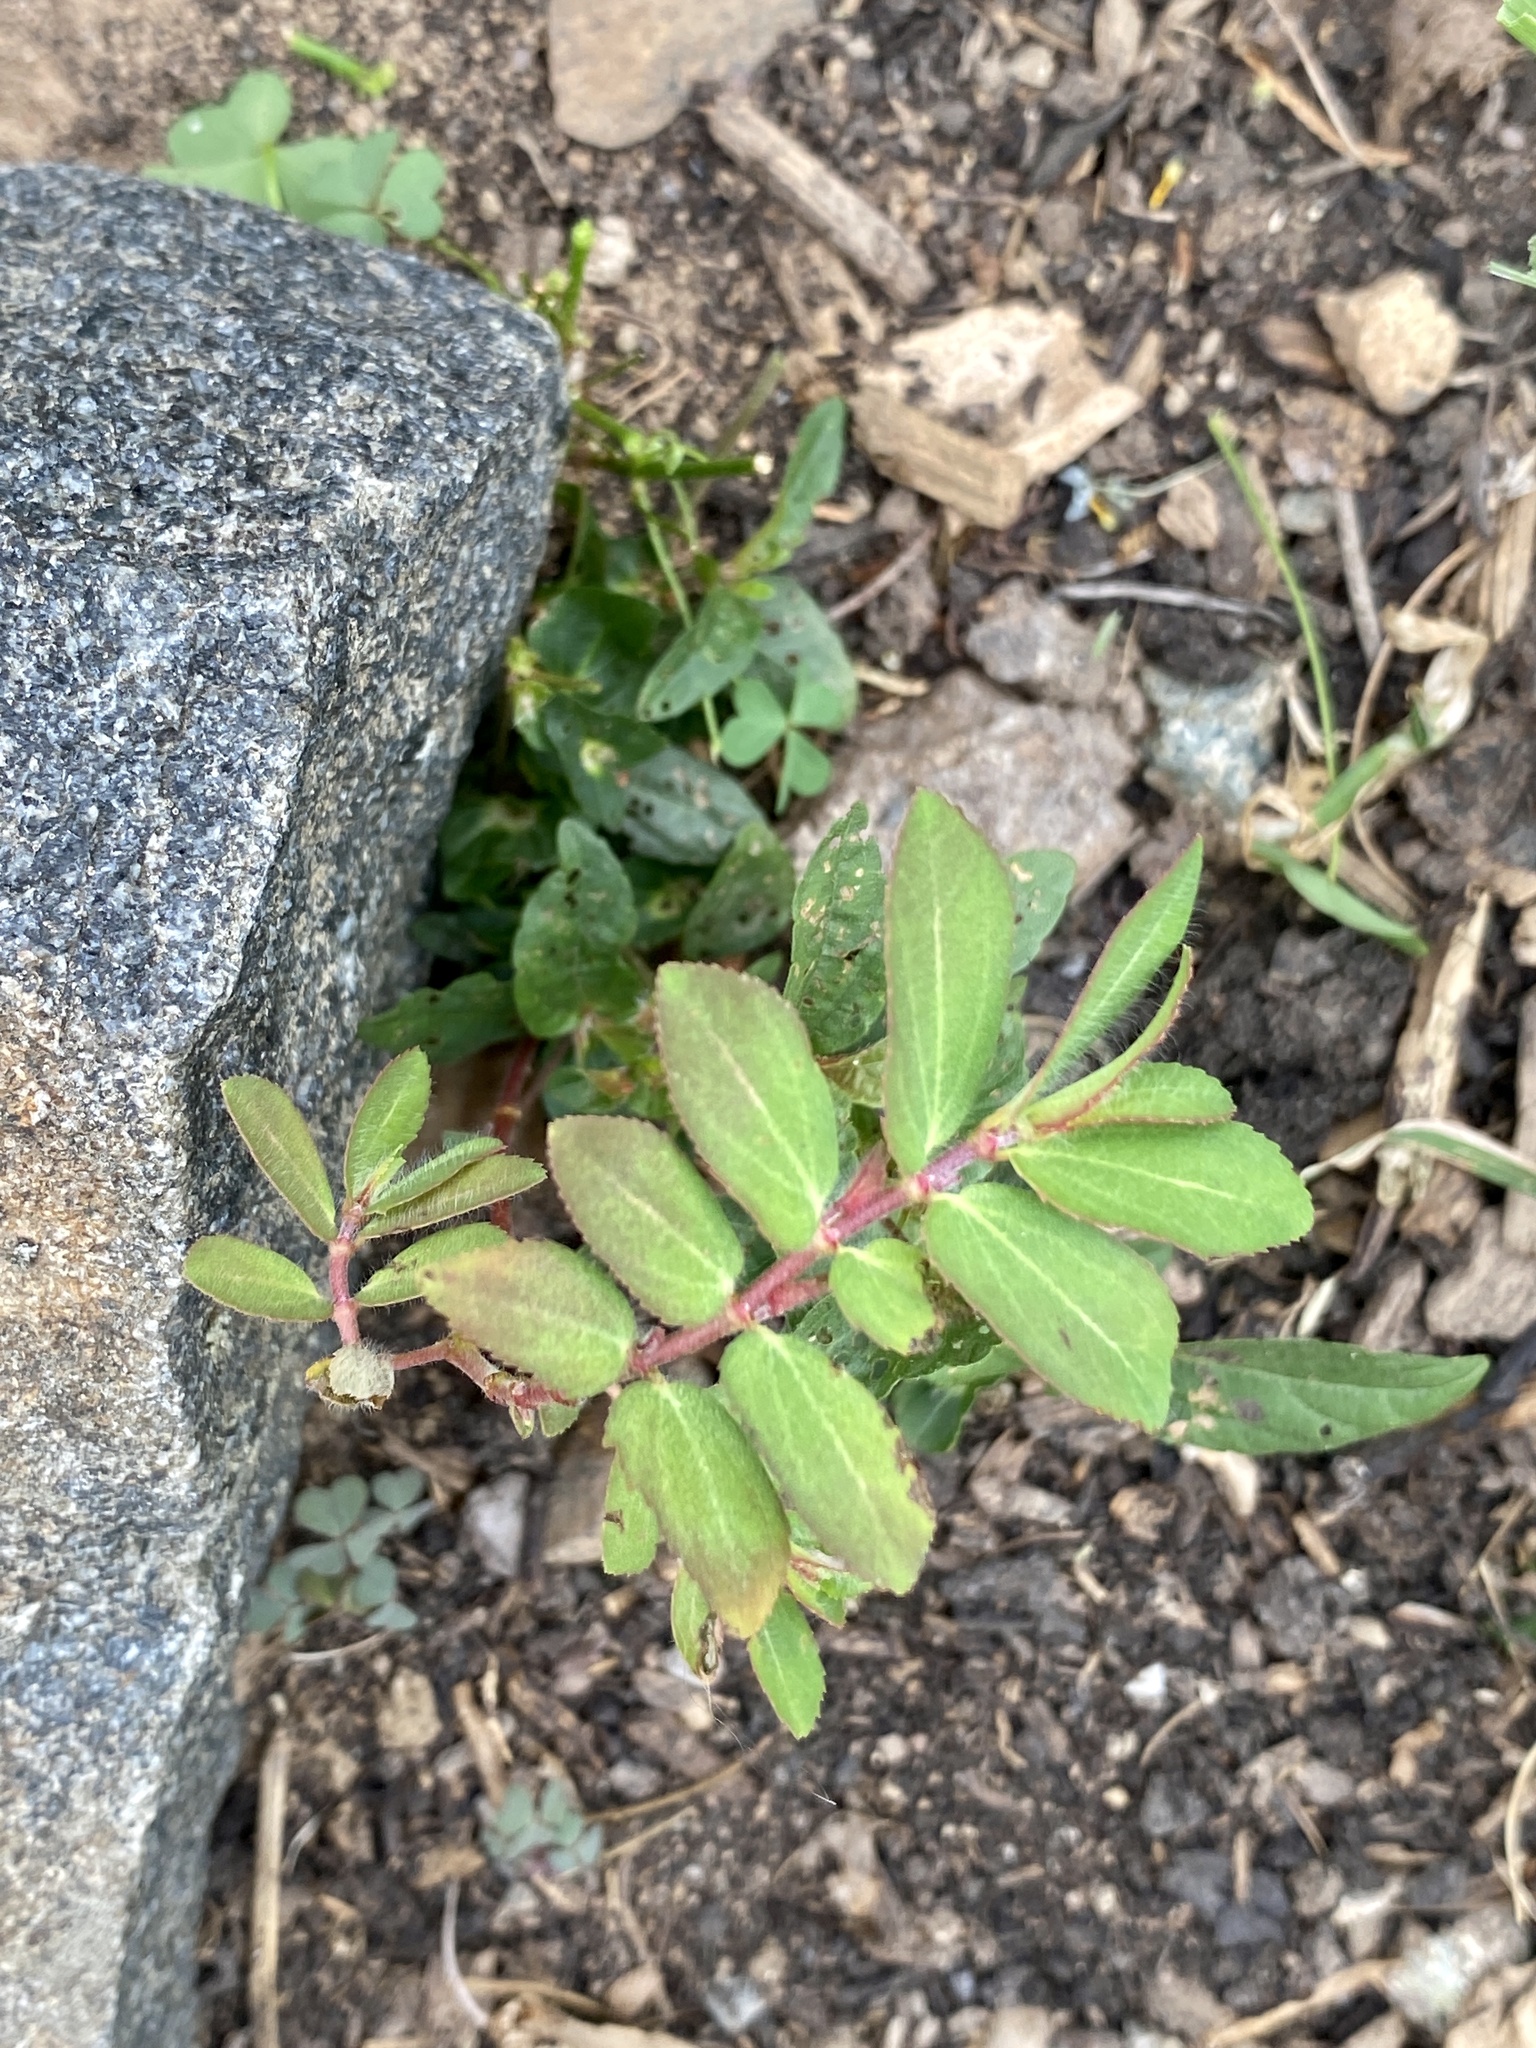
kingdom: Plantae
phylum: Tracheophyta
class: Magnoliopsida
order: Malpighiales
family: Euphorbiaceae
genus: Euphorbia
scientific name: Euphorbia nutans
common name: Eyebane
